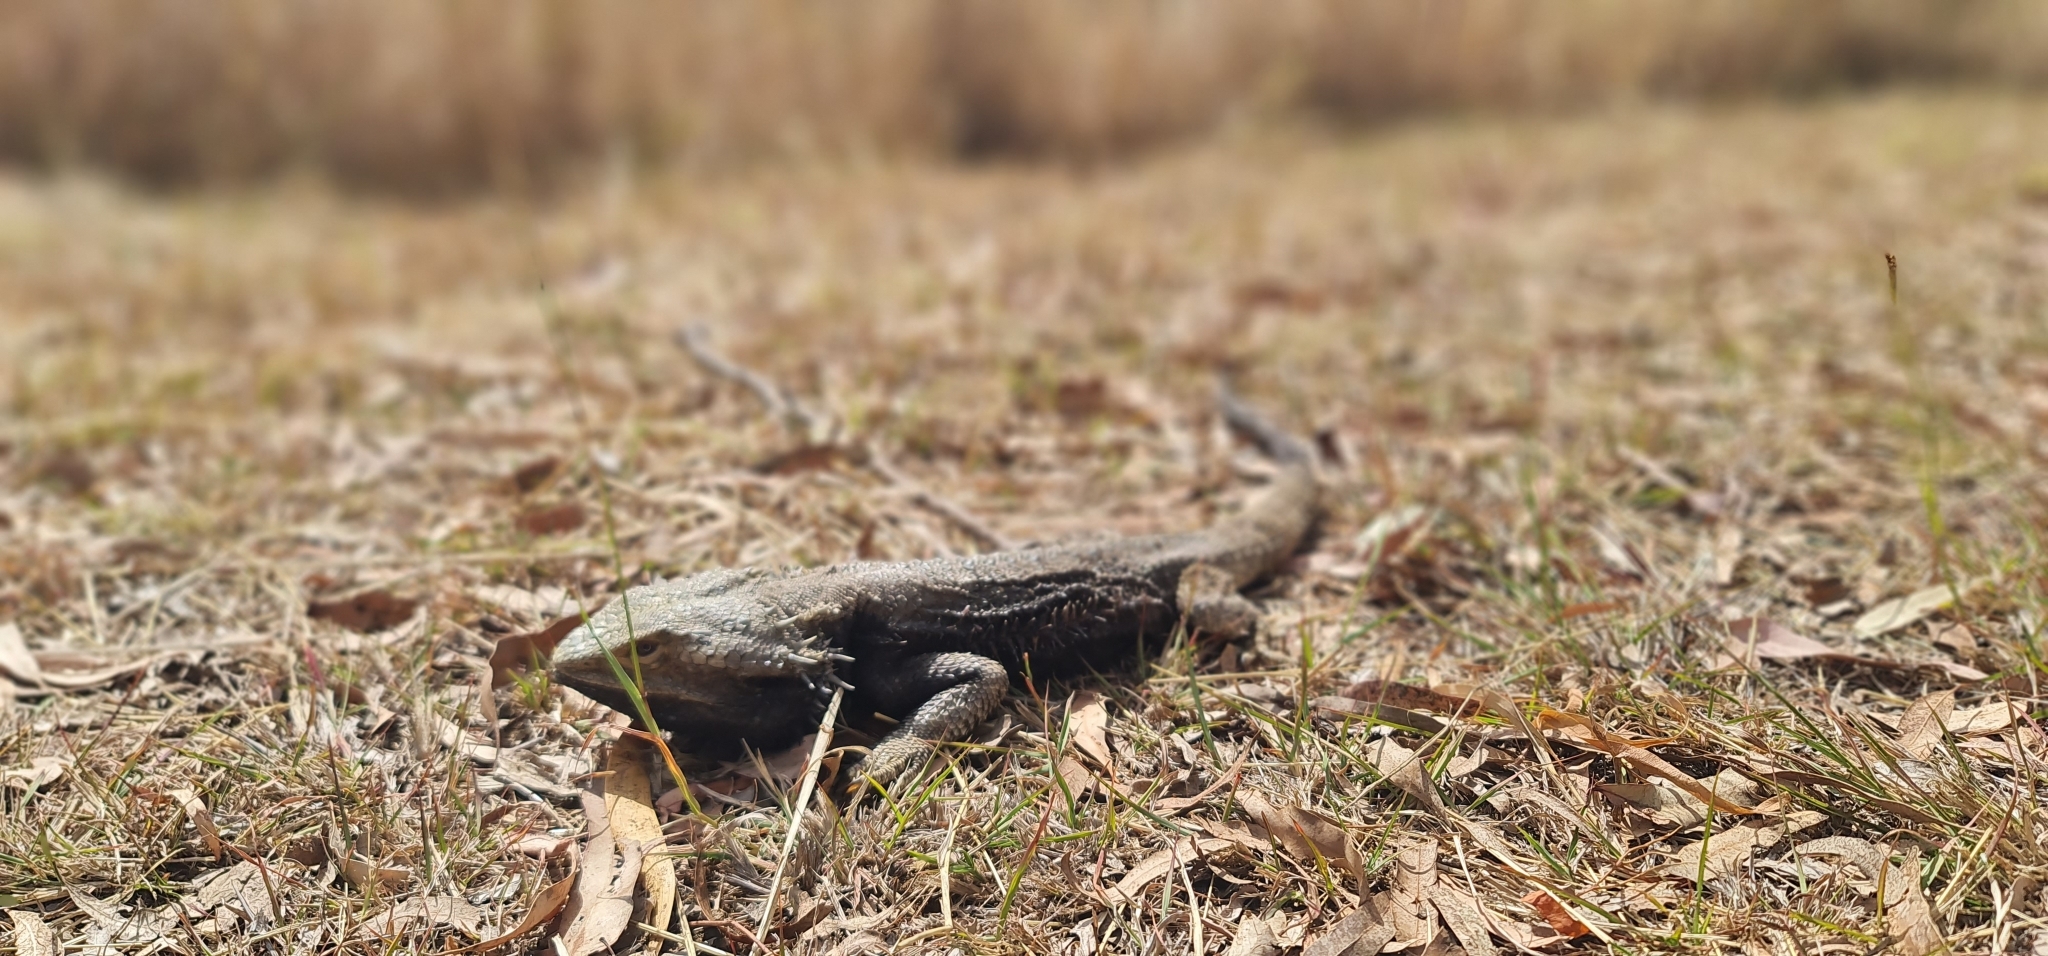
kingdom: Animalia
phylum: Chordata
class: Squamata
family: Agamidae
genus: Pogona
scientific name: Pogona barbata
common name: Bearded dragon
